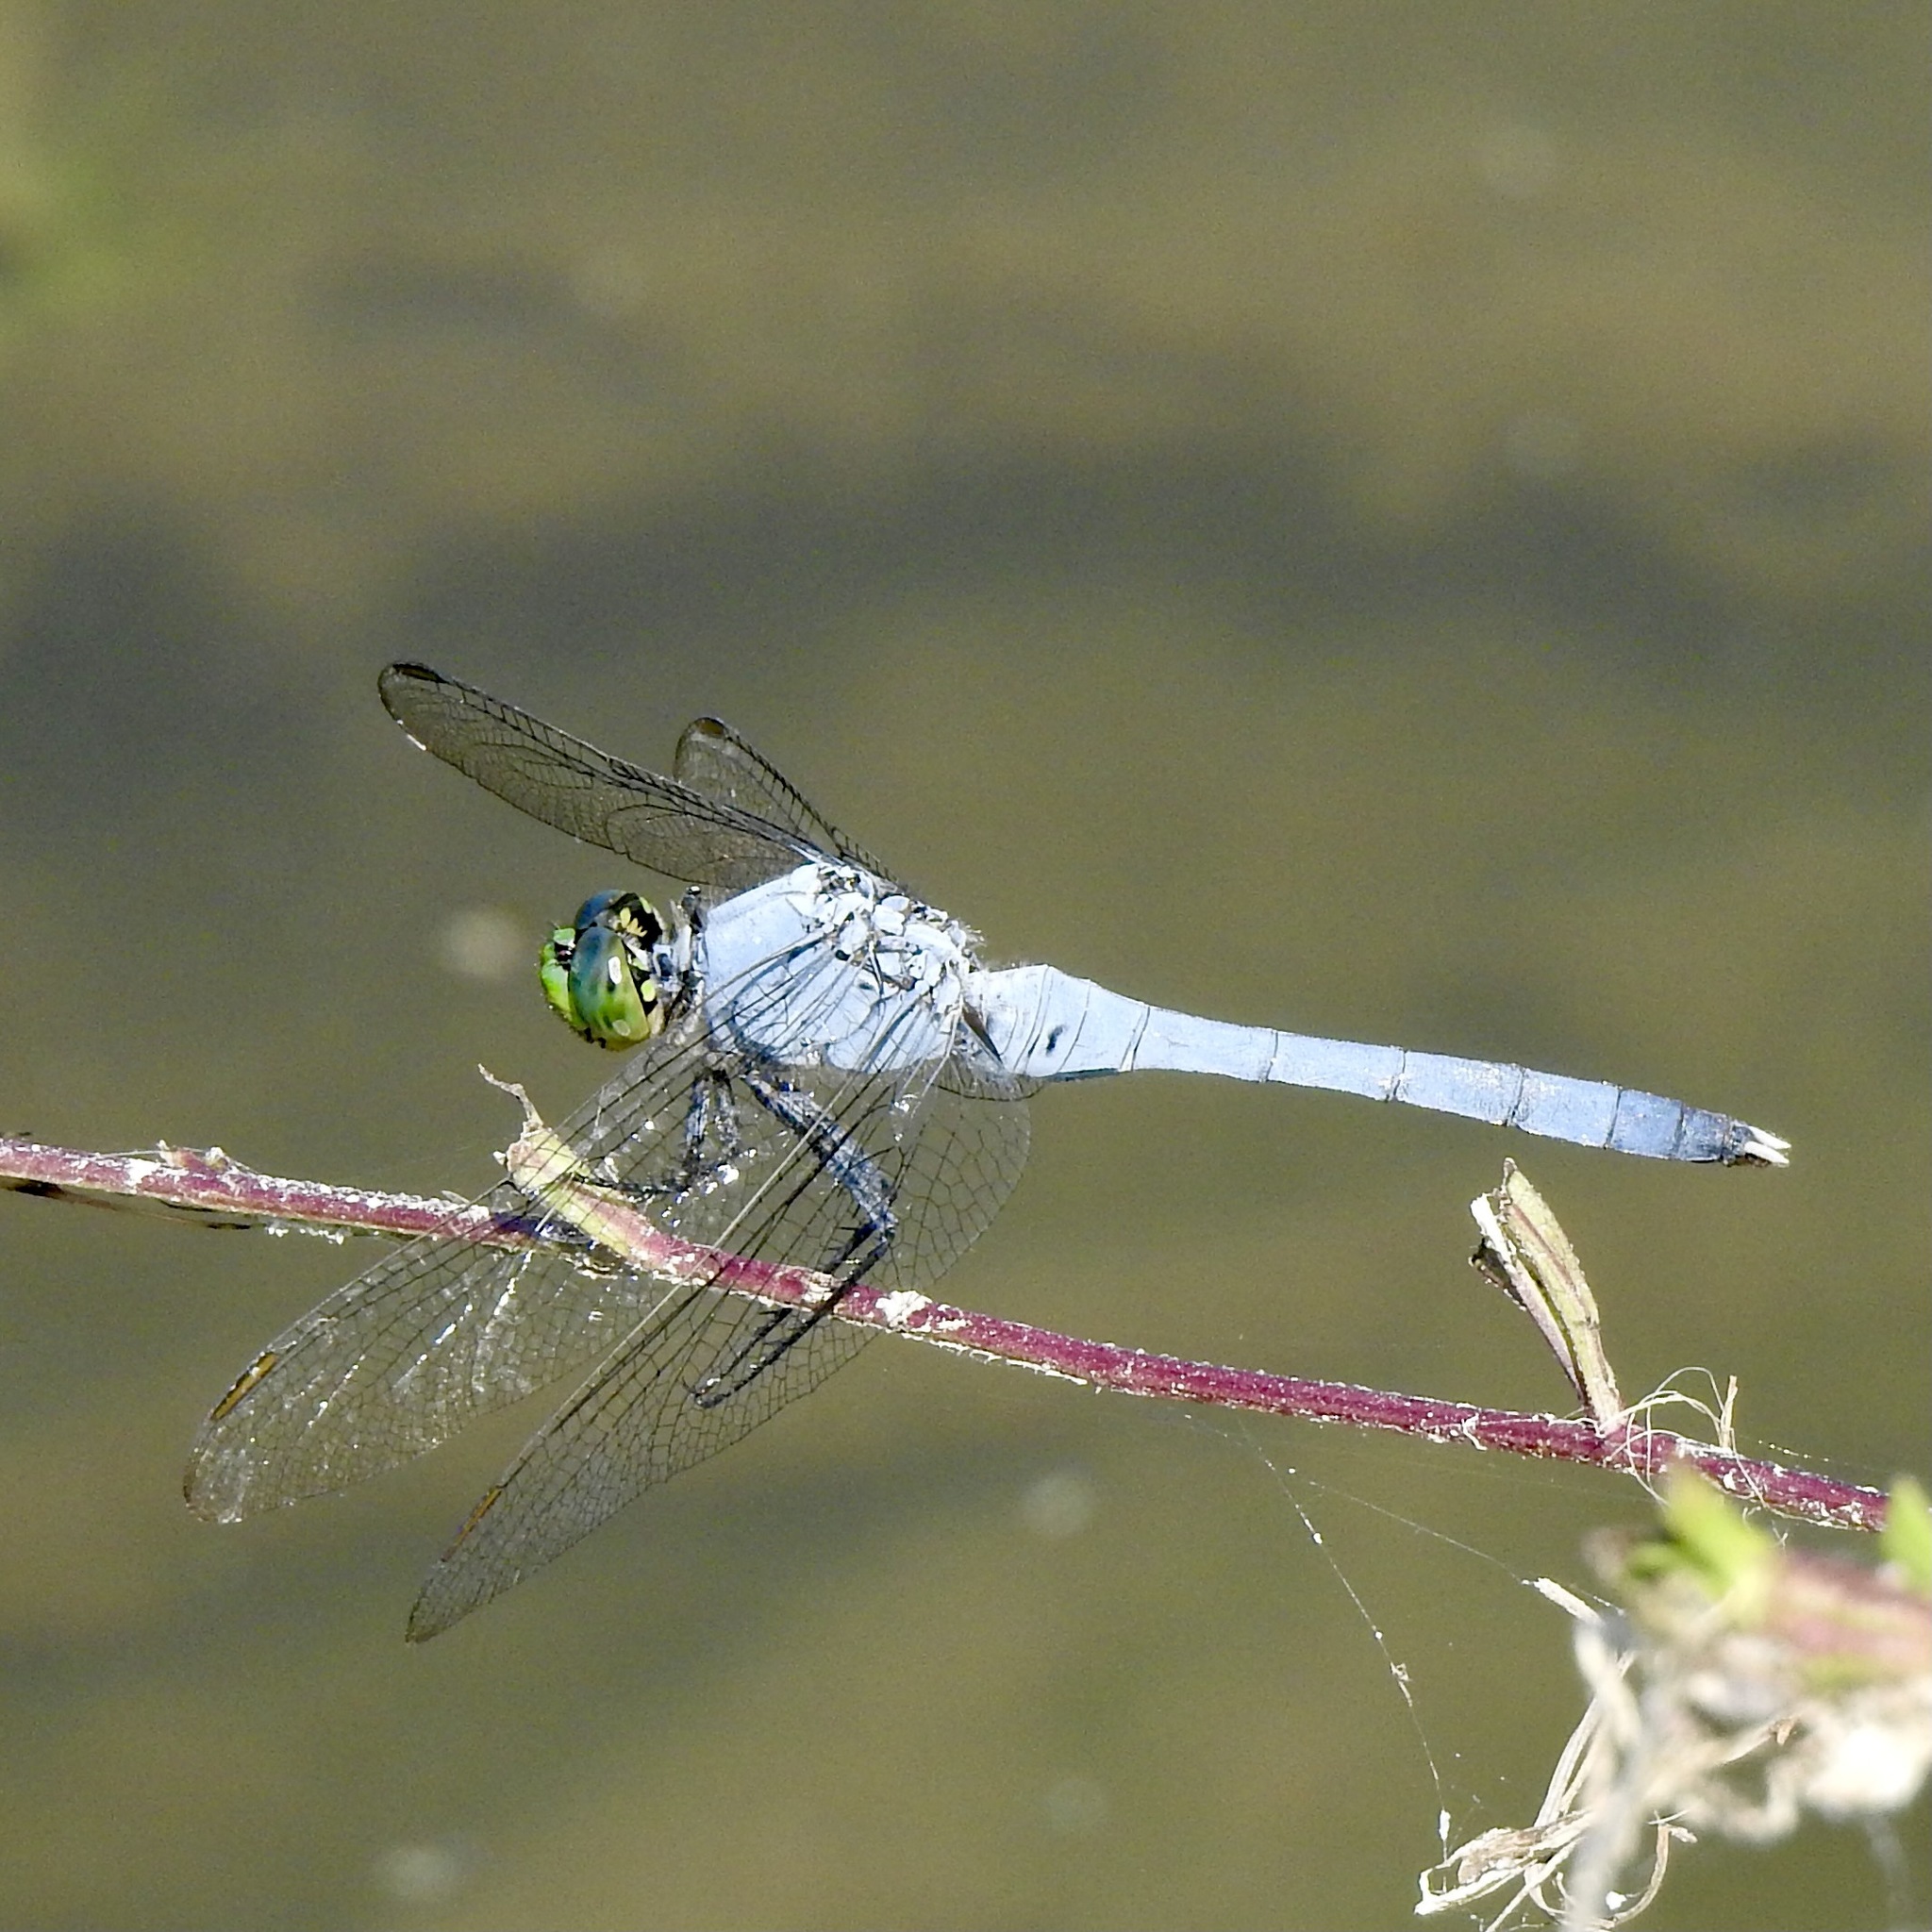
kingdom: Animalia
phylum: Arthropoda
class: Insecta
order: Odonata
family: Libellulidae
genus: Erythemis
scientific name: Erythemis simplicicollis
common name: Eastern pondhawk
